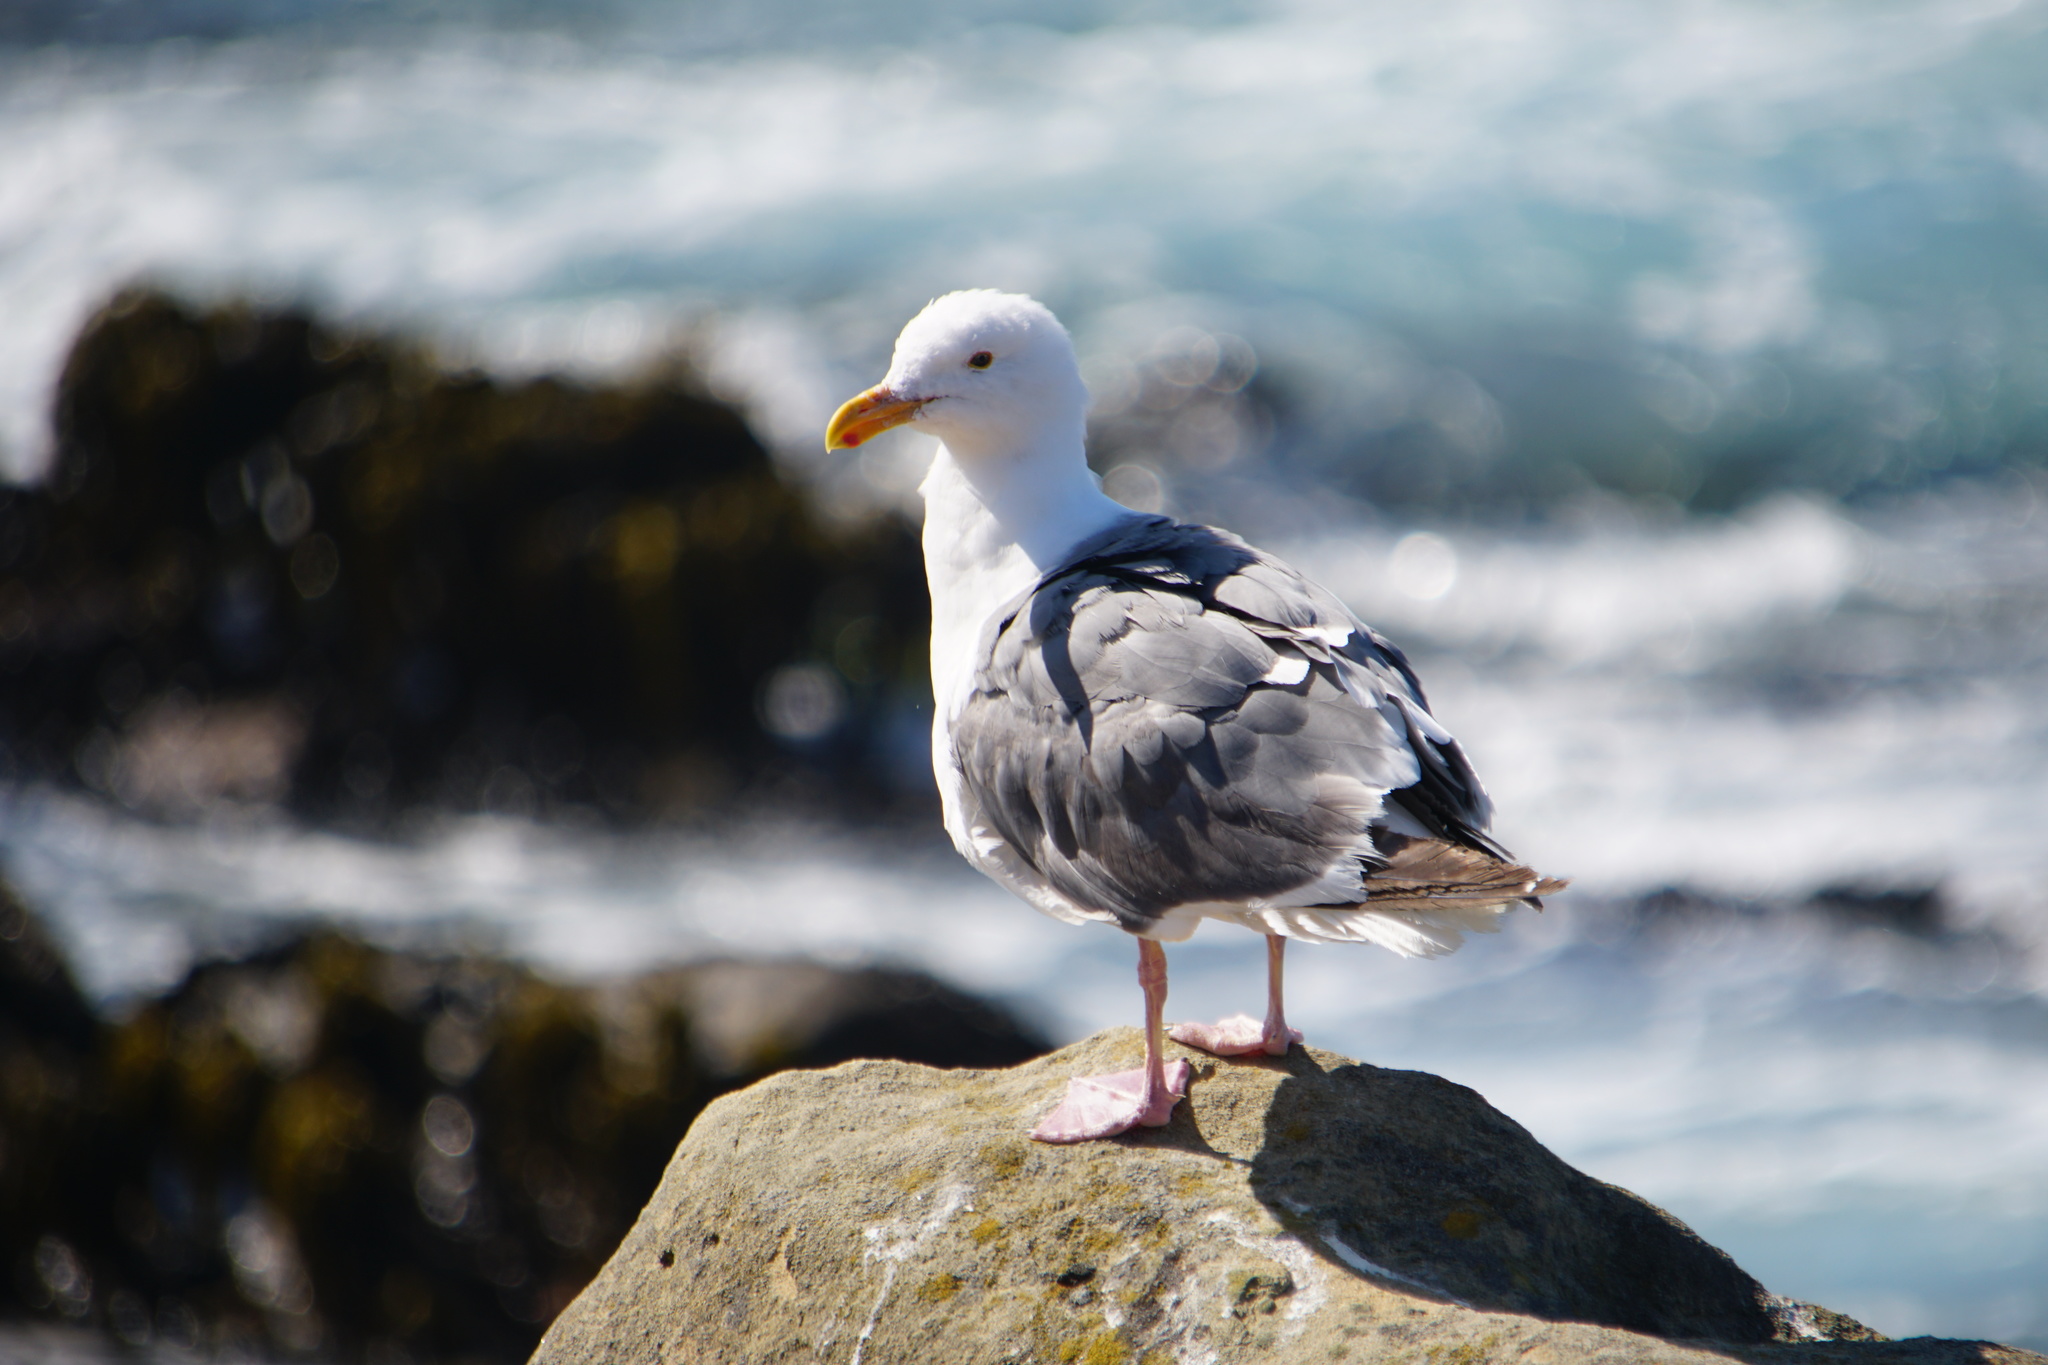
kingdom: Animalia
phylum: Chordata
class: Aves
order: Charadriiformes
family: Laridae
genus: Larus
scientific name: Larus occidentalis
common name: Western gull
